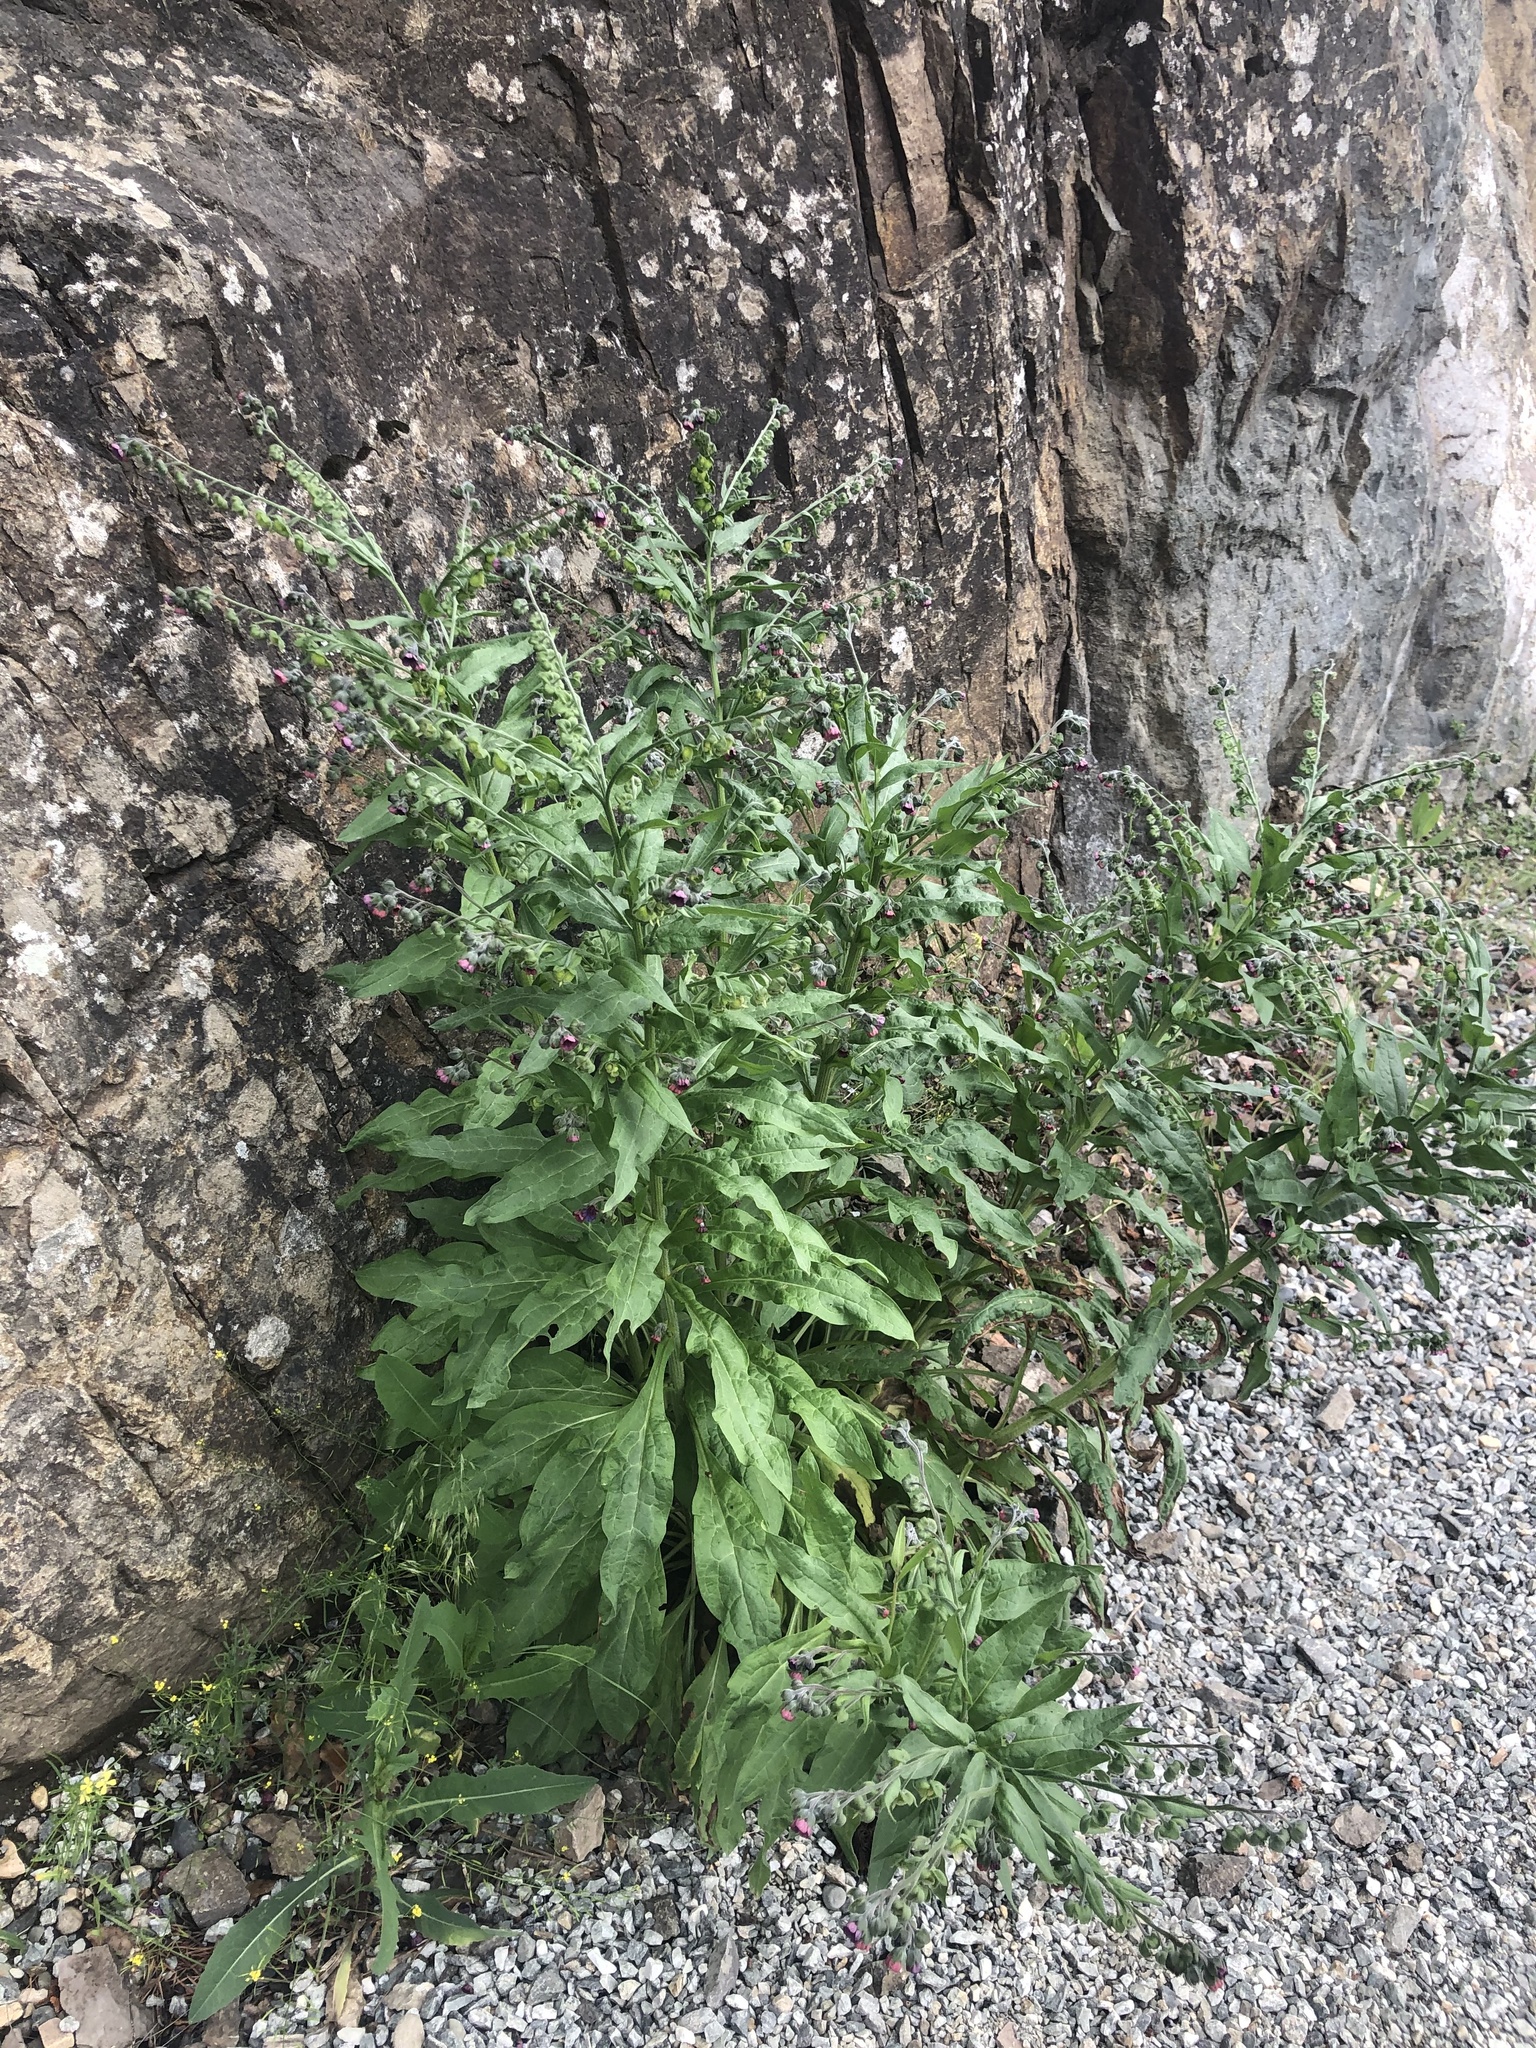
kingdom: Plantae
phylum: Tracheophyta
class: Magnoliopsida
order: Boraginales
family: Boraginaceae
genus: Cynoglossum
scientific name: Cynoglossum officinale
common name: Hound's-tongue
